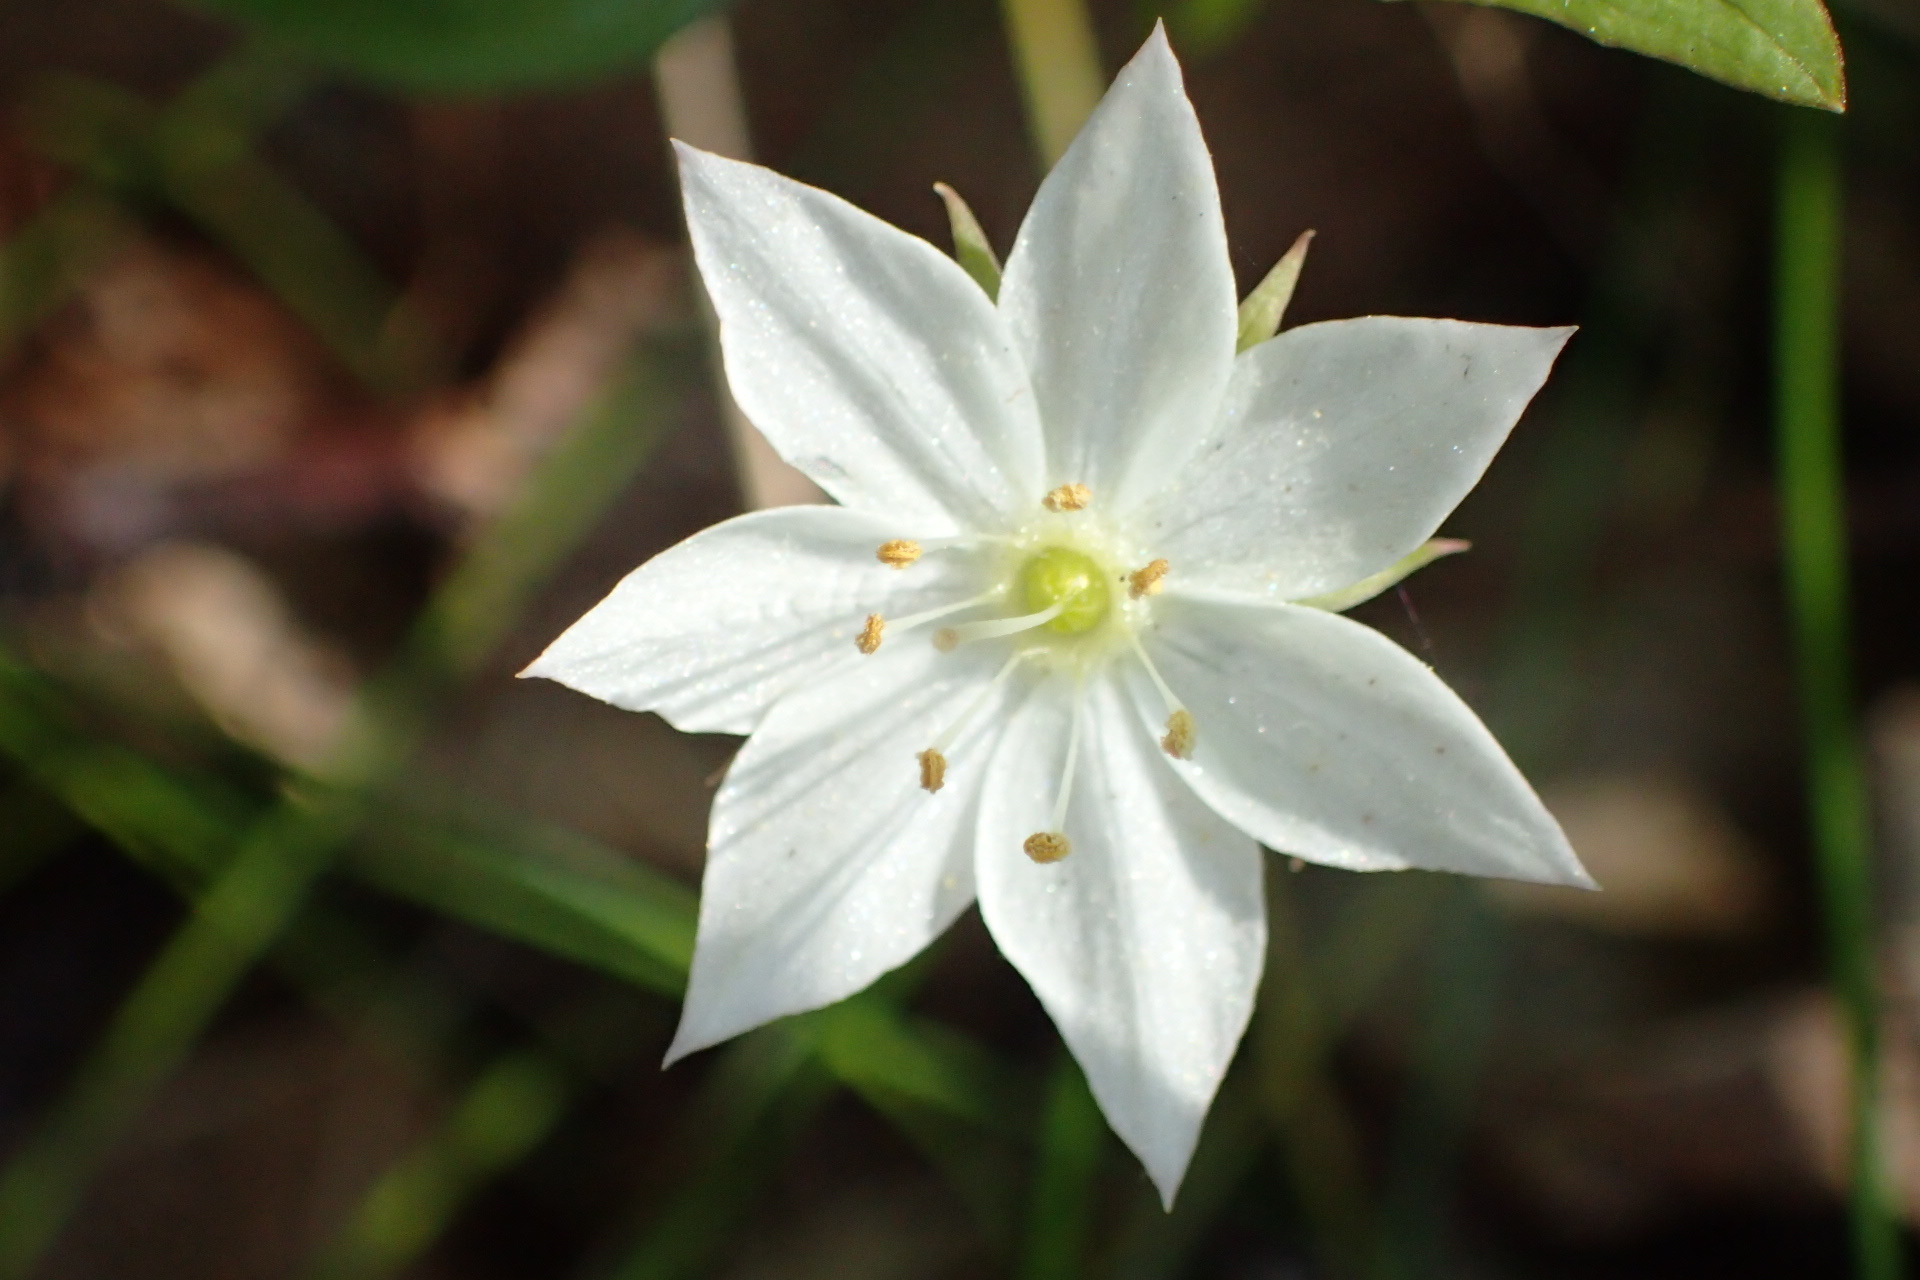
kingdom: Plantae
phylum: Tracheophyta
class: Magnoliopsida
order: Ericales
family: Primulaceae
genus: Lysimachia
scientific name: Lysimachia borealis
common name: American starflower
